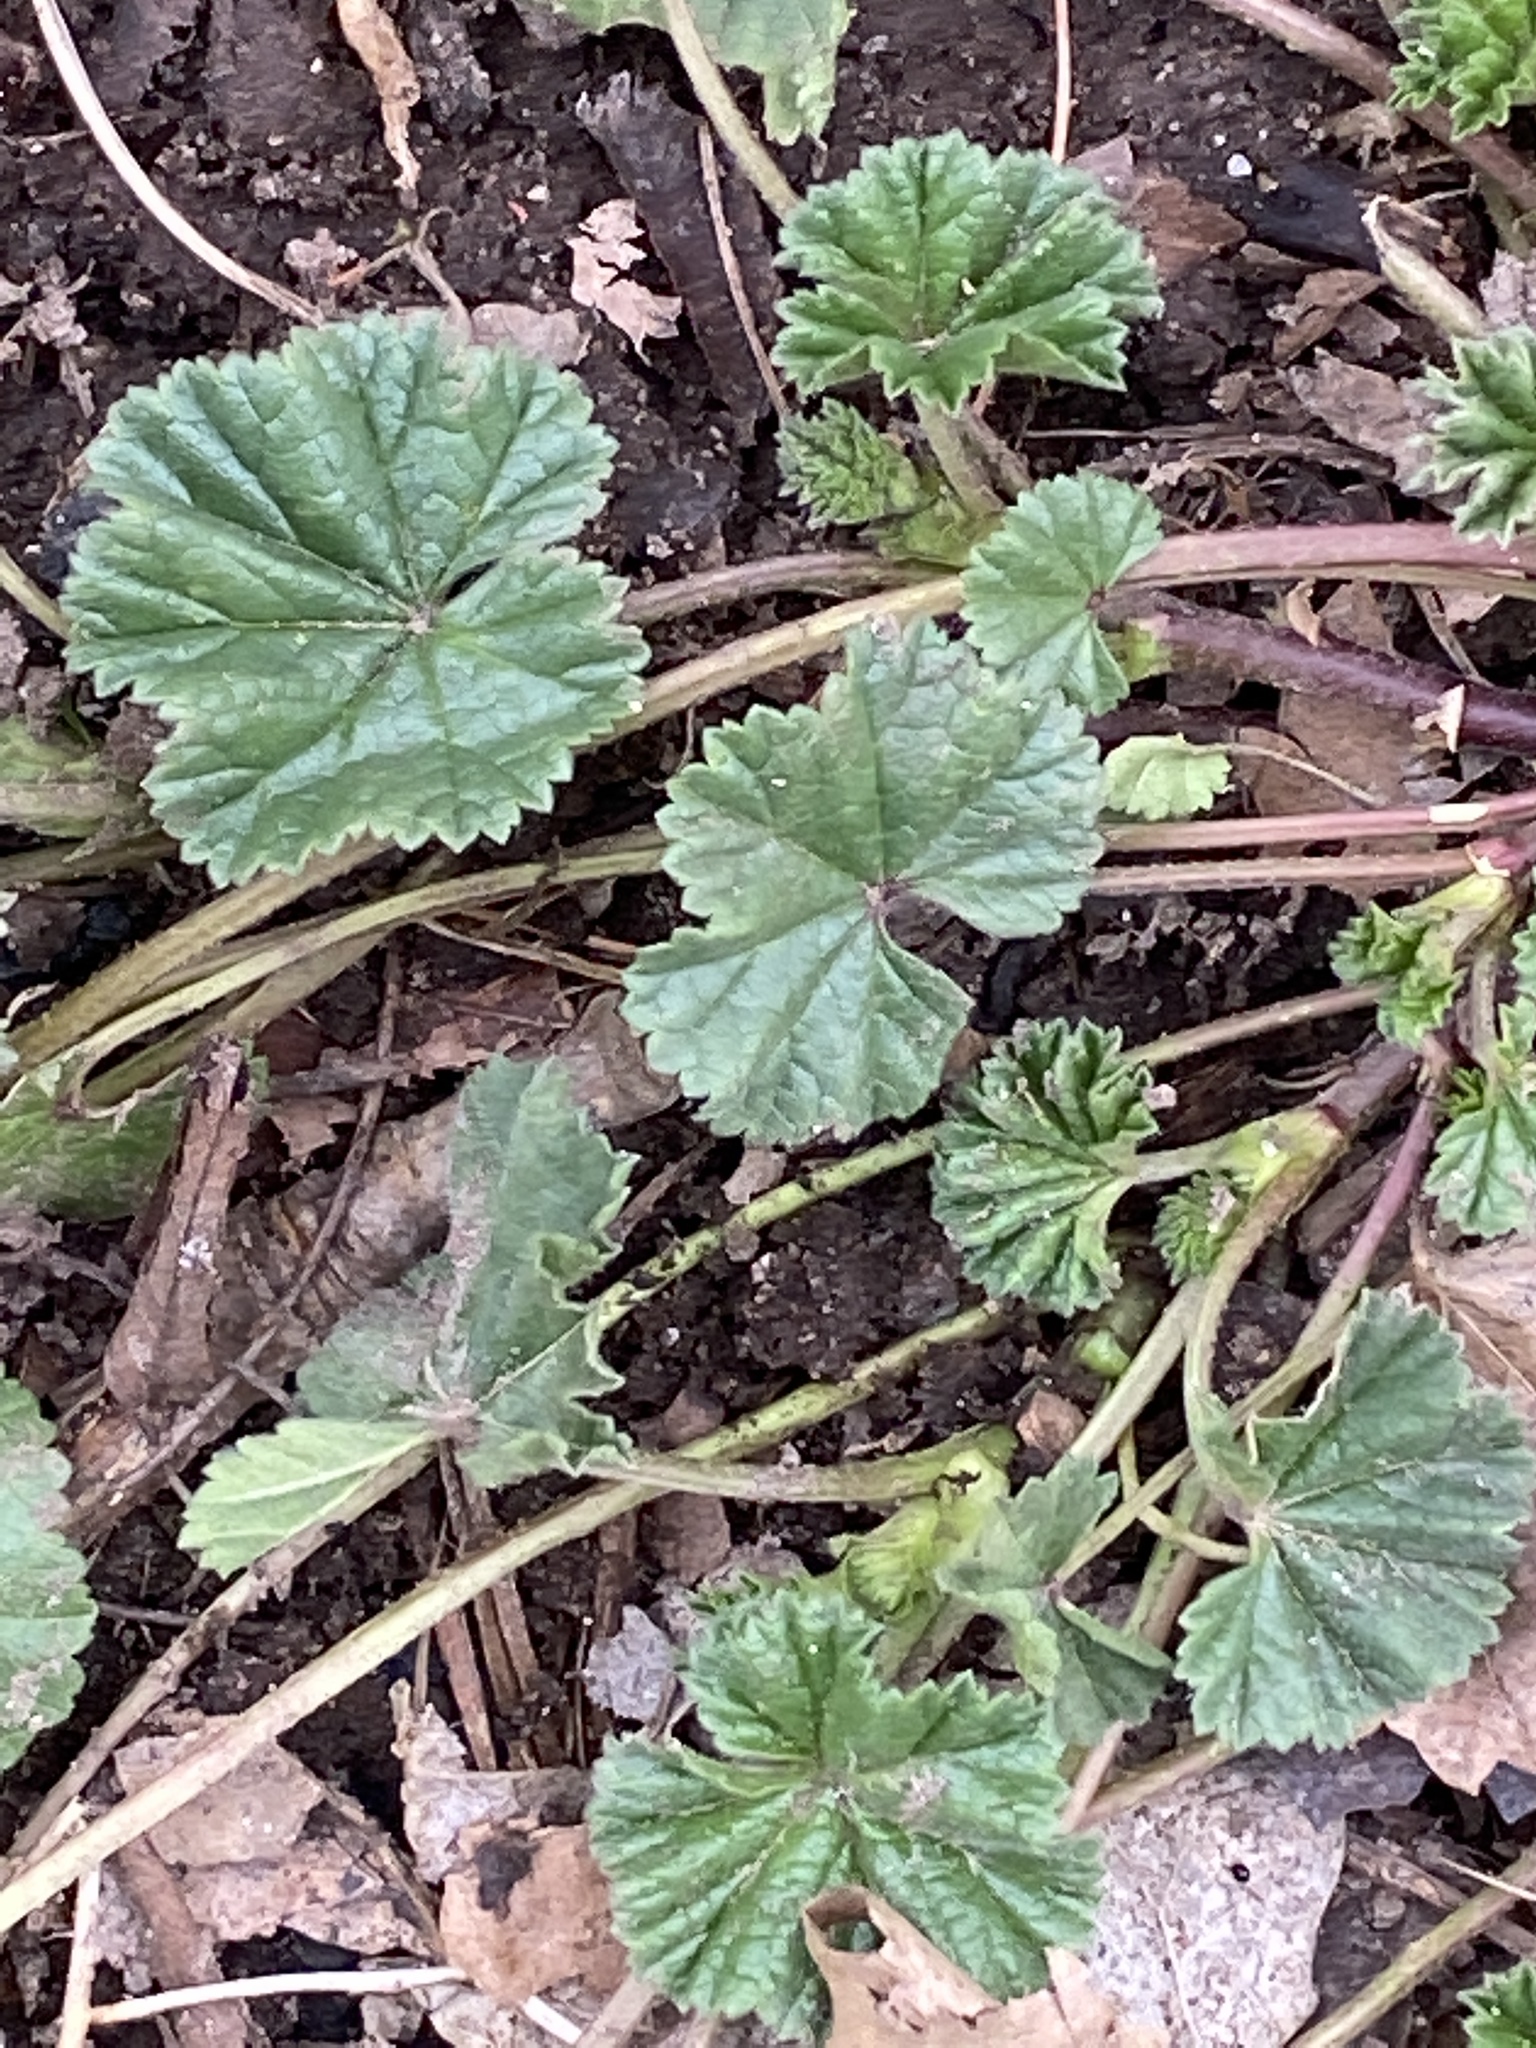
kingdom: Plantae
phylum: Tracheophyta
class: Magnoliopsida
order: Malvales
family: Malvaceae
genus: Malva
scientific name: Malva neglecta
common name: Common mallow
